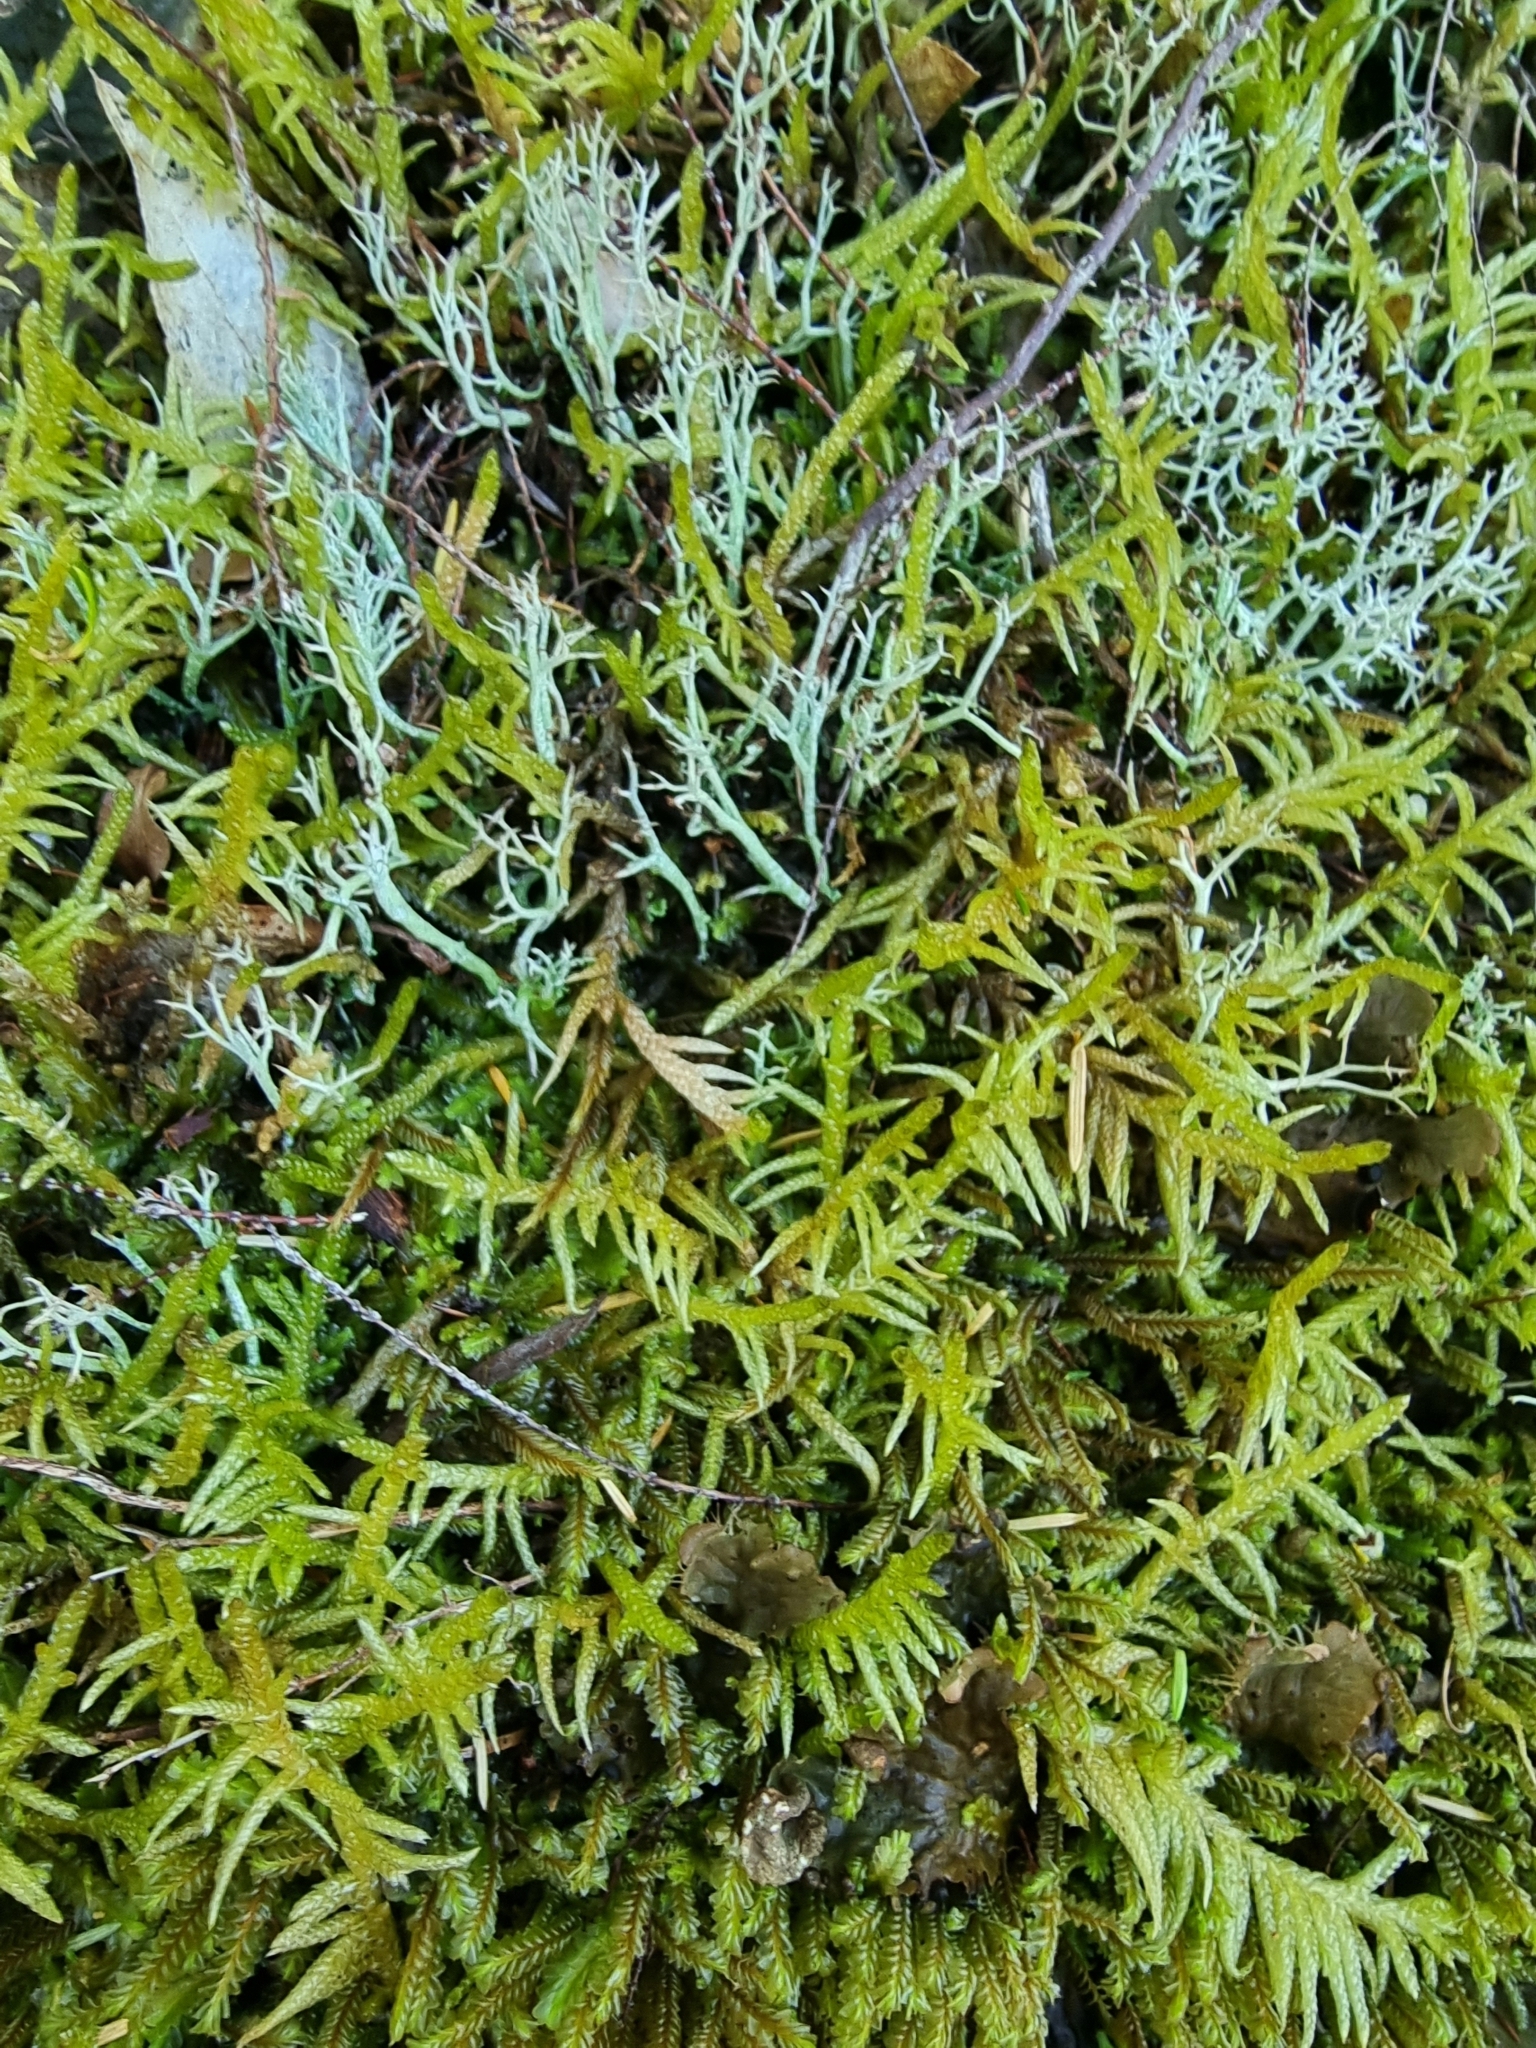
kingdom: Plantae
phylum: Bryophyta
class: Bryopsida
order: Hypnales
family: Brachytheciaceae
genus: Pseudoscleropodium
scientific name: Pseudoscleropodium purum
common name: Neat feather-moss
